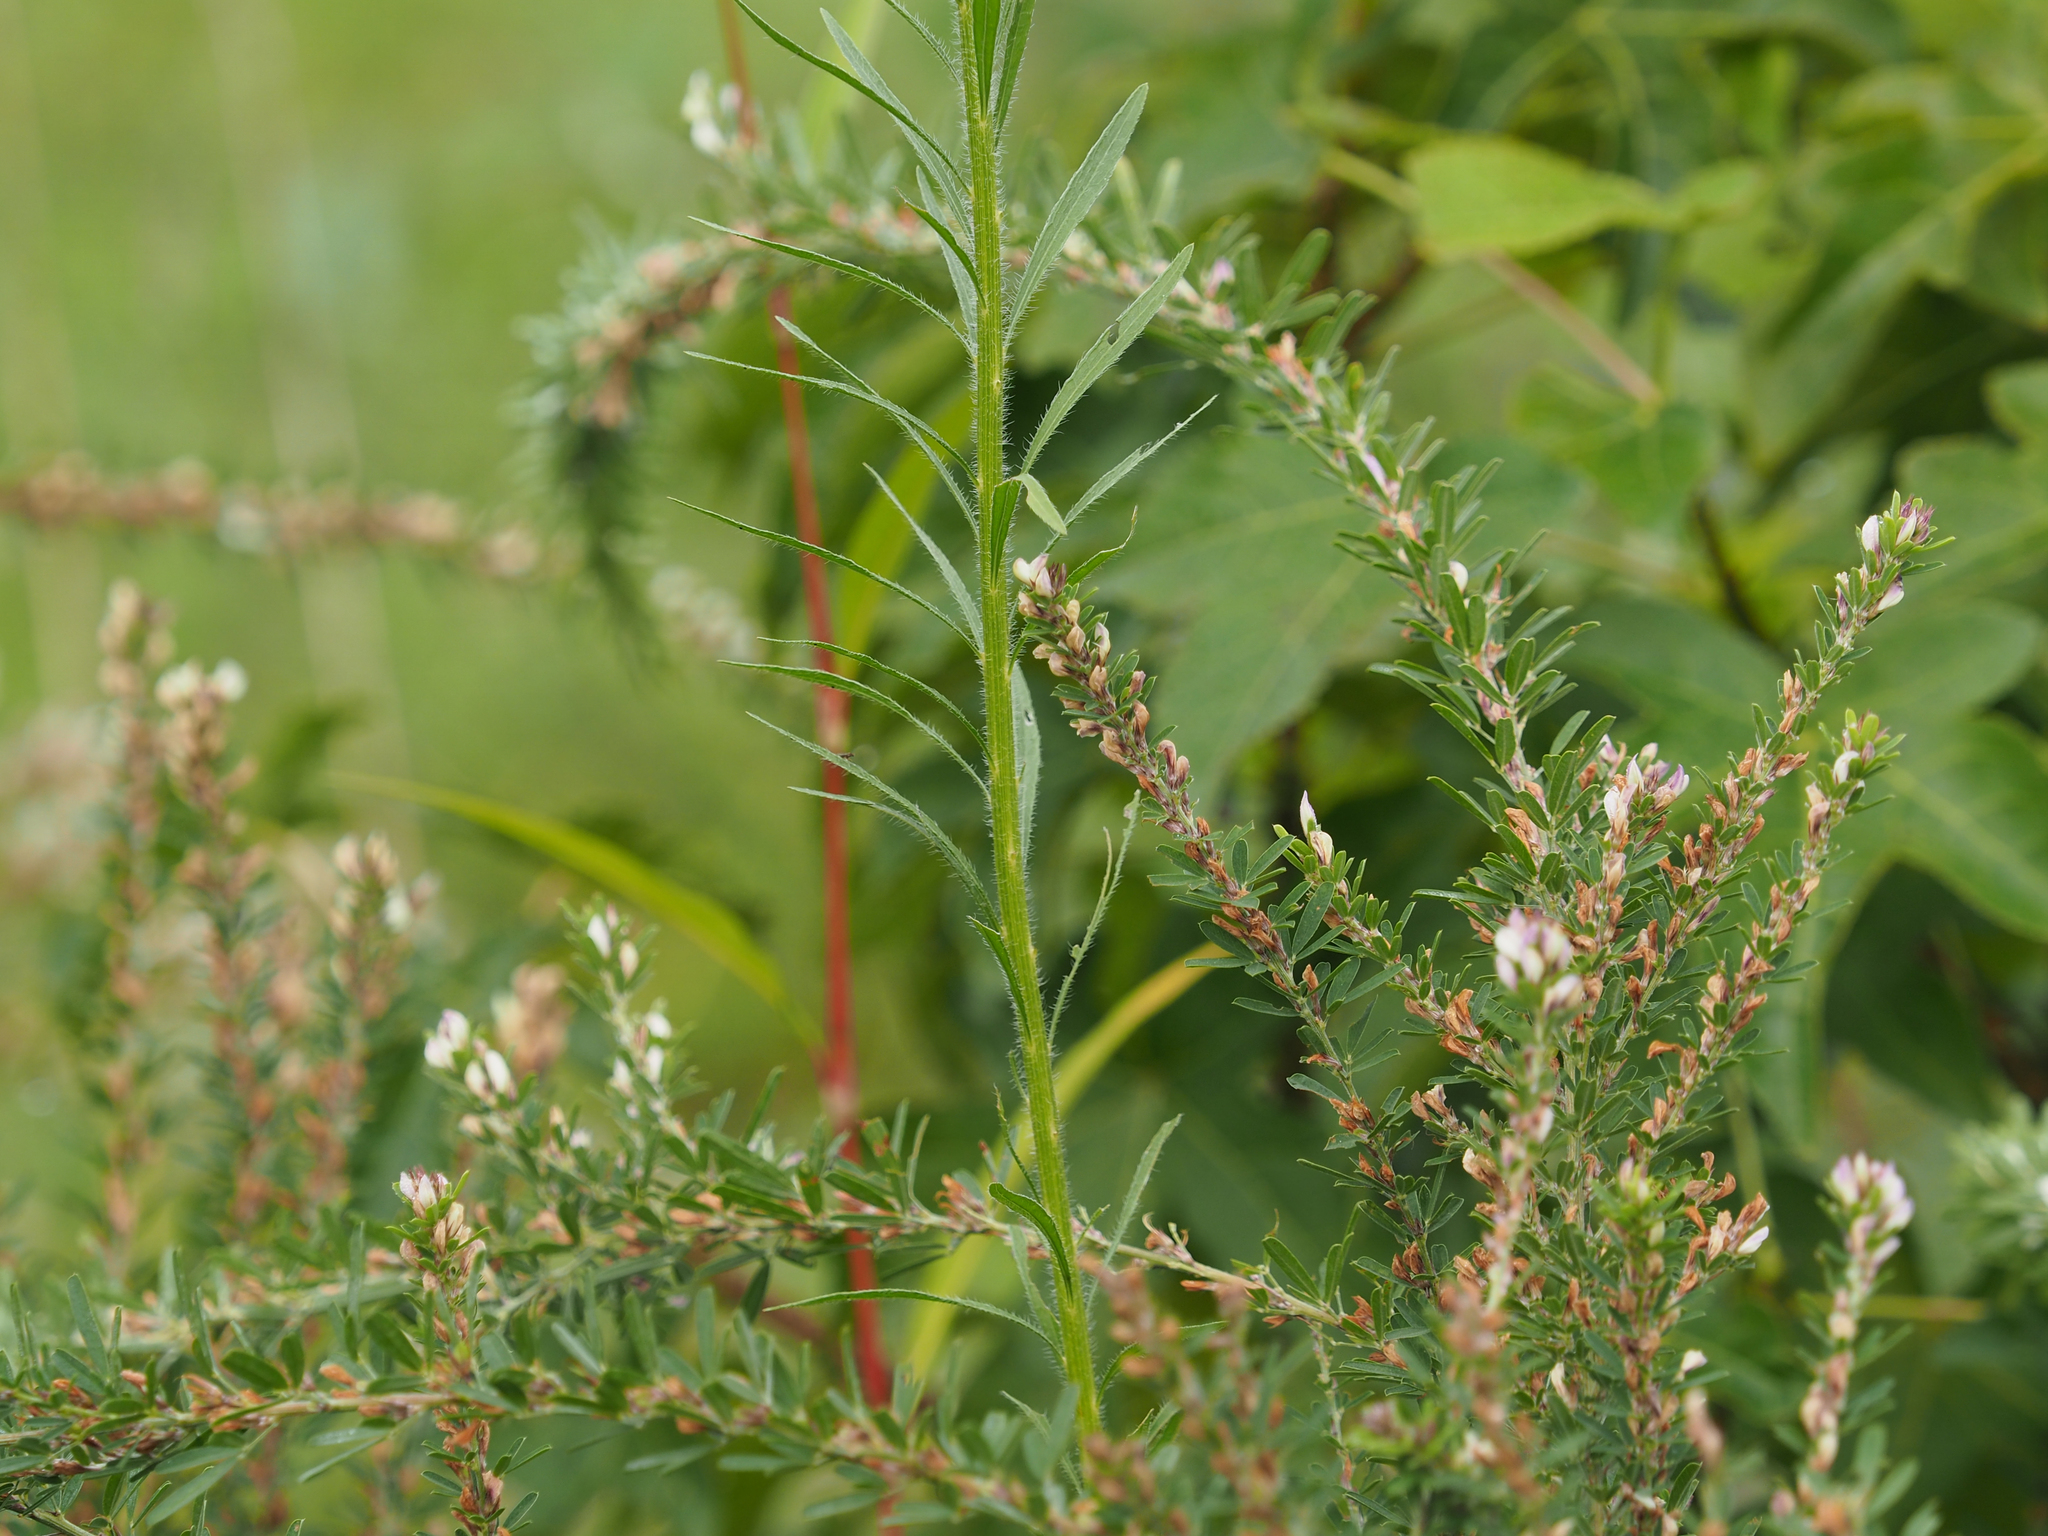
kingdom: Plantae
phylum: Tracheophyta
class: Magnoliopsida
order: Asterales
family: Asteraceae
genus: Erigeron
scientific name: Erigeron canadensis
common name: Canadian fleabane
